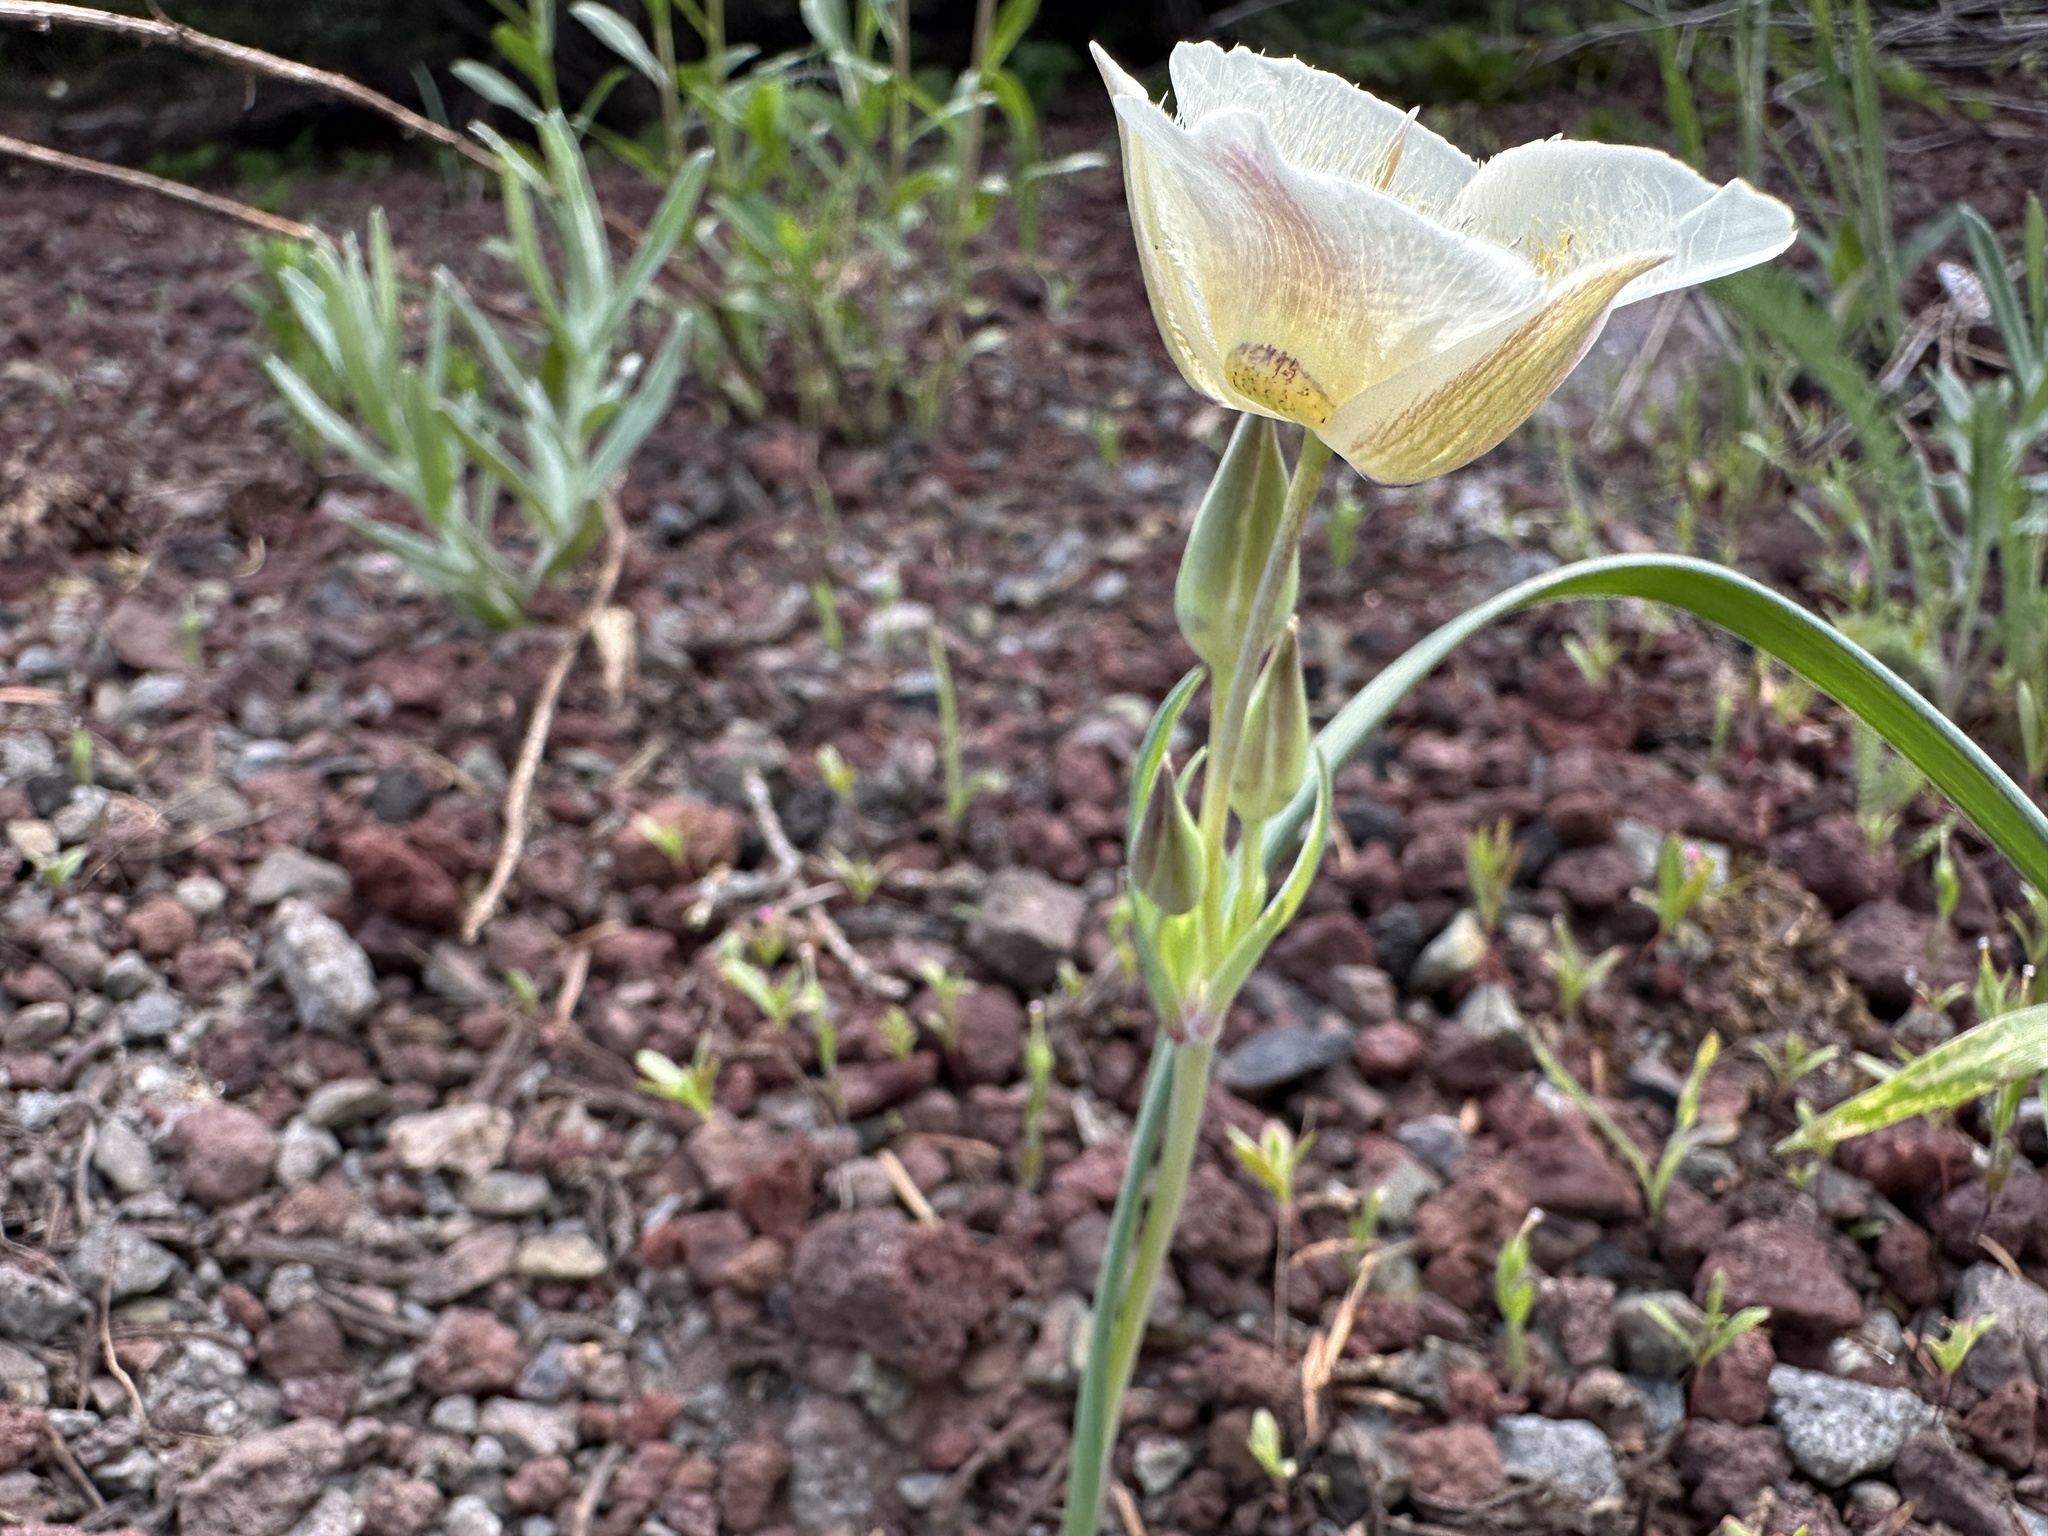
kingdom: Plantae
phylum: Tracheophyta
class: Liliopsida
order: Liliales
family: Liliaceae
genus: Calochortus
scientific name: Calochortus subalpinus
